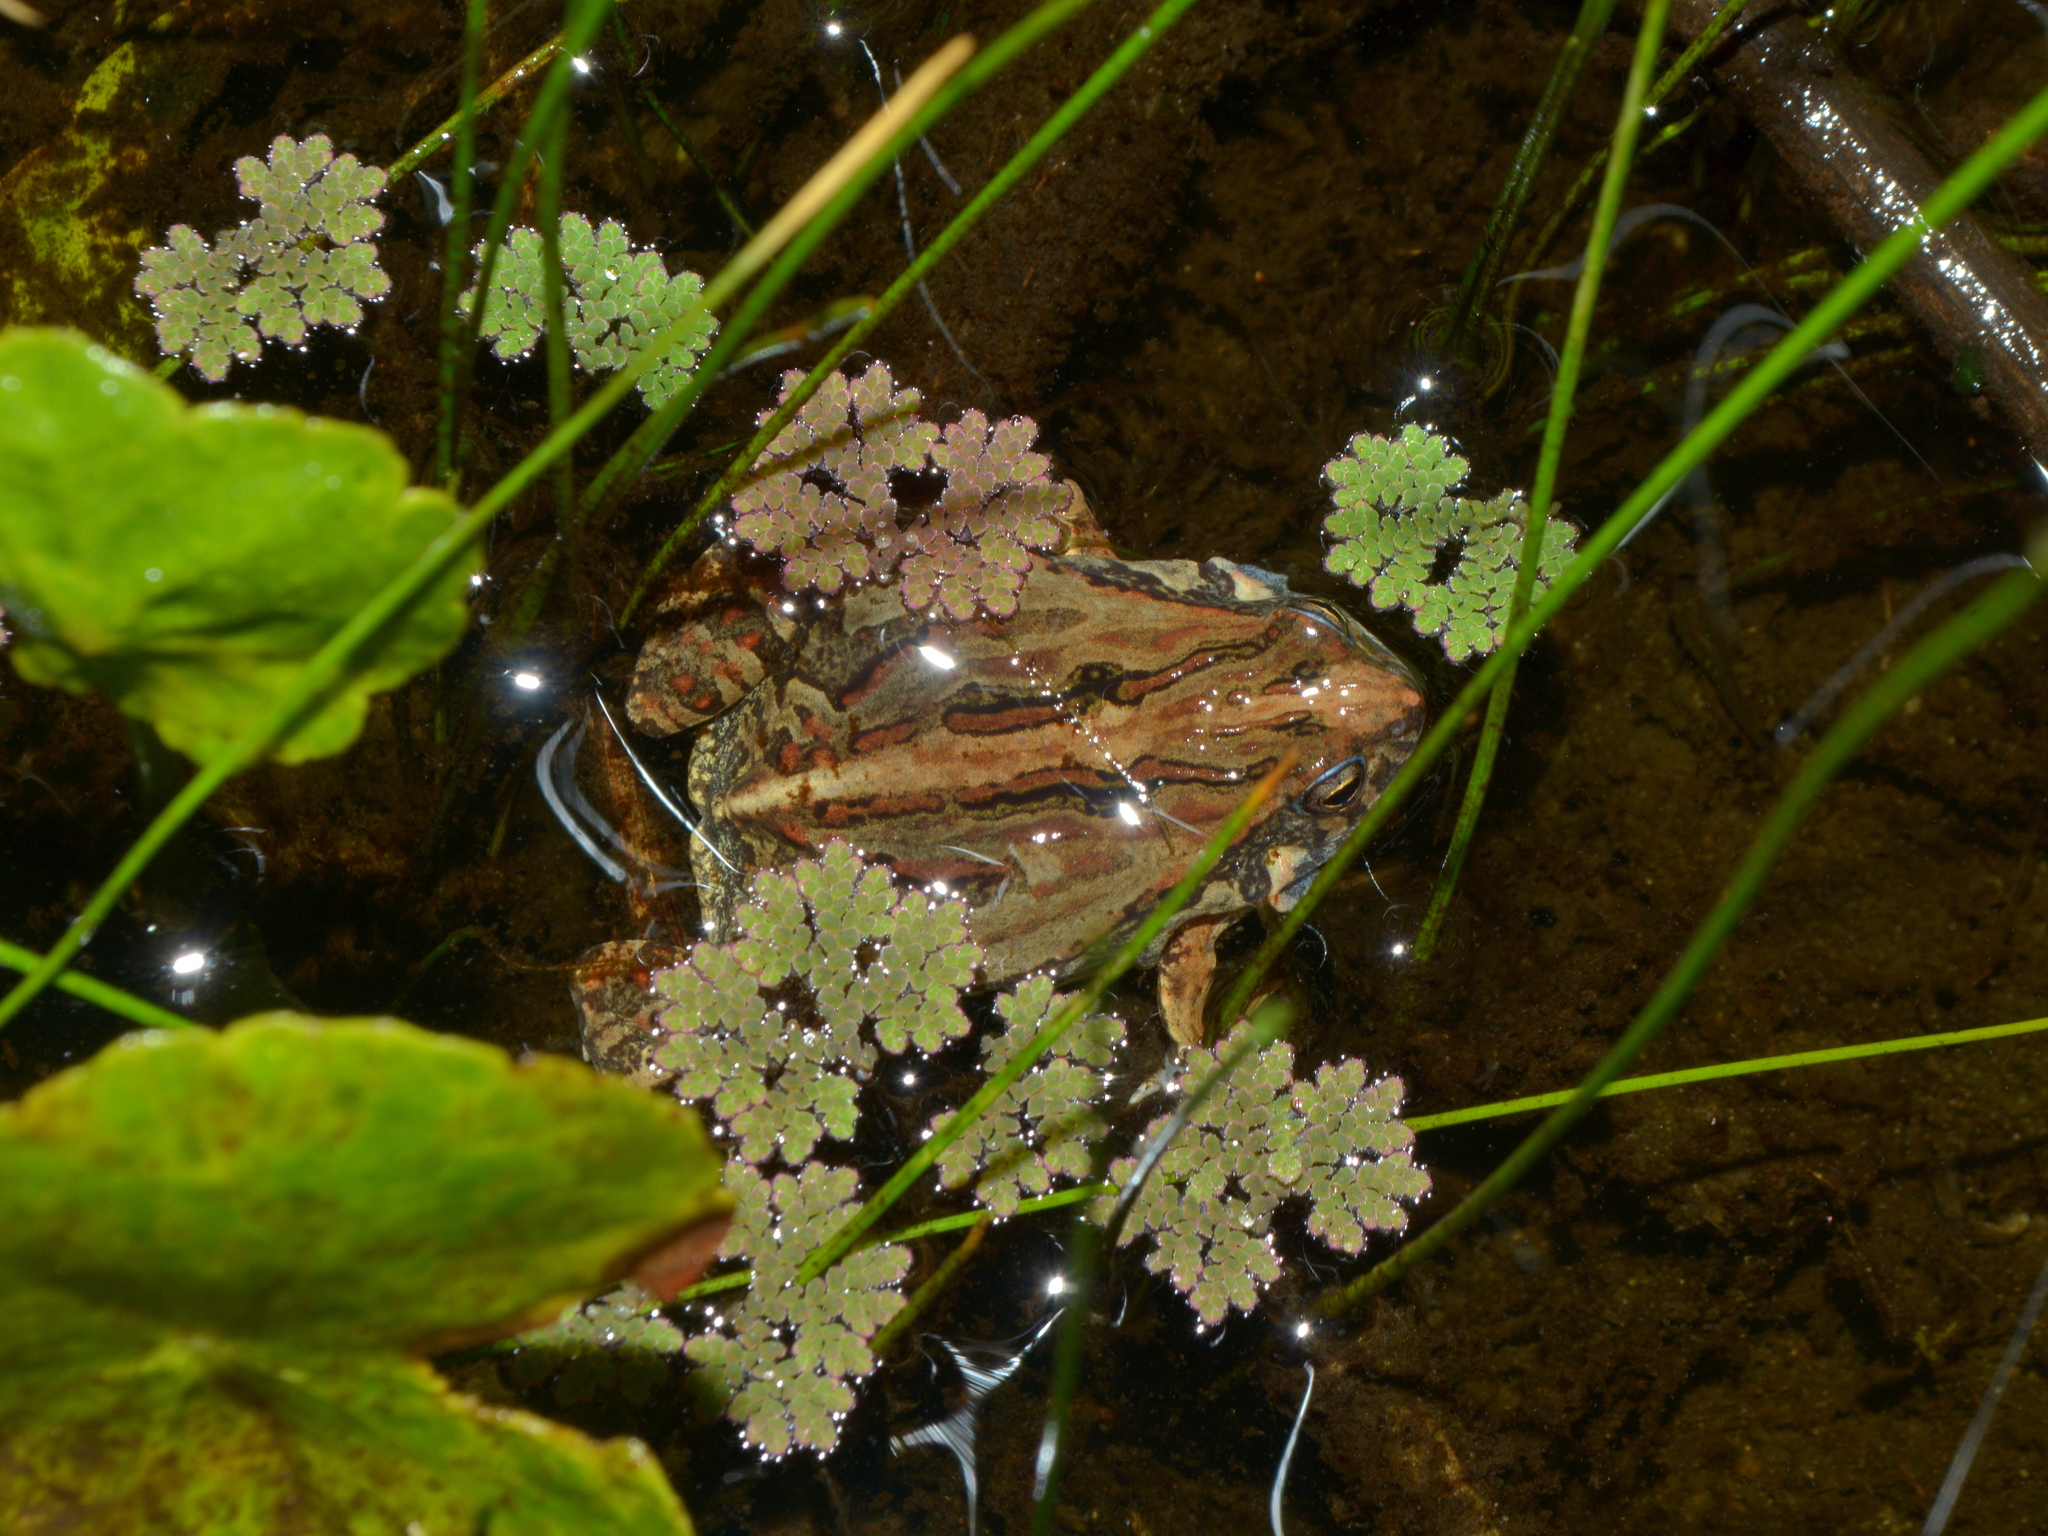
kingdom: Animalia
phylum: Chordata
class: Amphibia
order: Anura
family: Leptodactylidae
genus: Physalaemus
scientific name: Physalaemus biligonigerus
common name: Weeping frog
